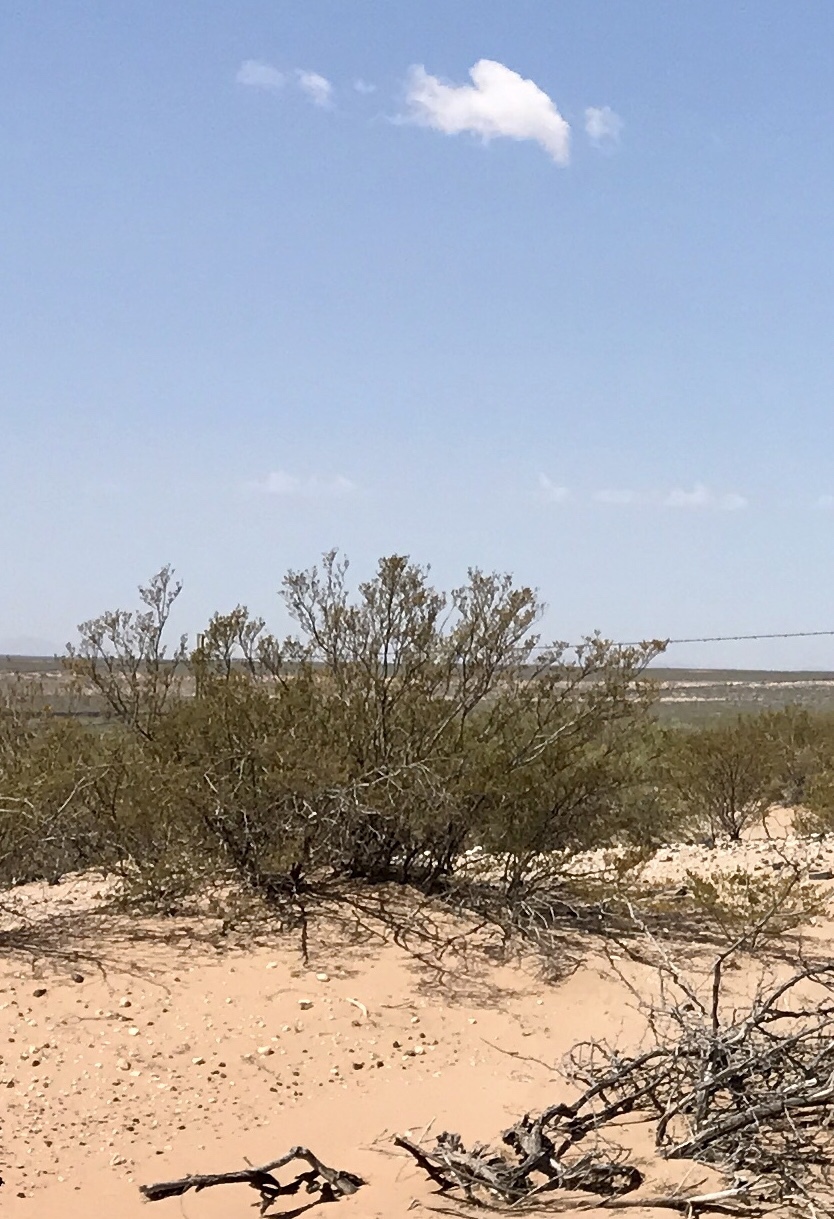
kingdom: Plantae
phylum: Tracheophyta
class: Magnoliopsida
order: Zygophyllales
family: Zygophyllaceae
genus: Larrea
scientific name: Larrea tridentata
